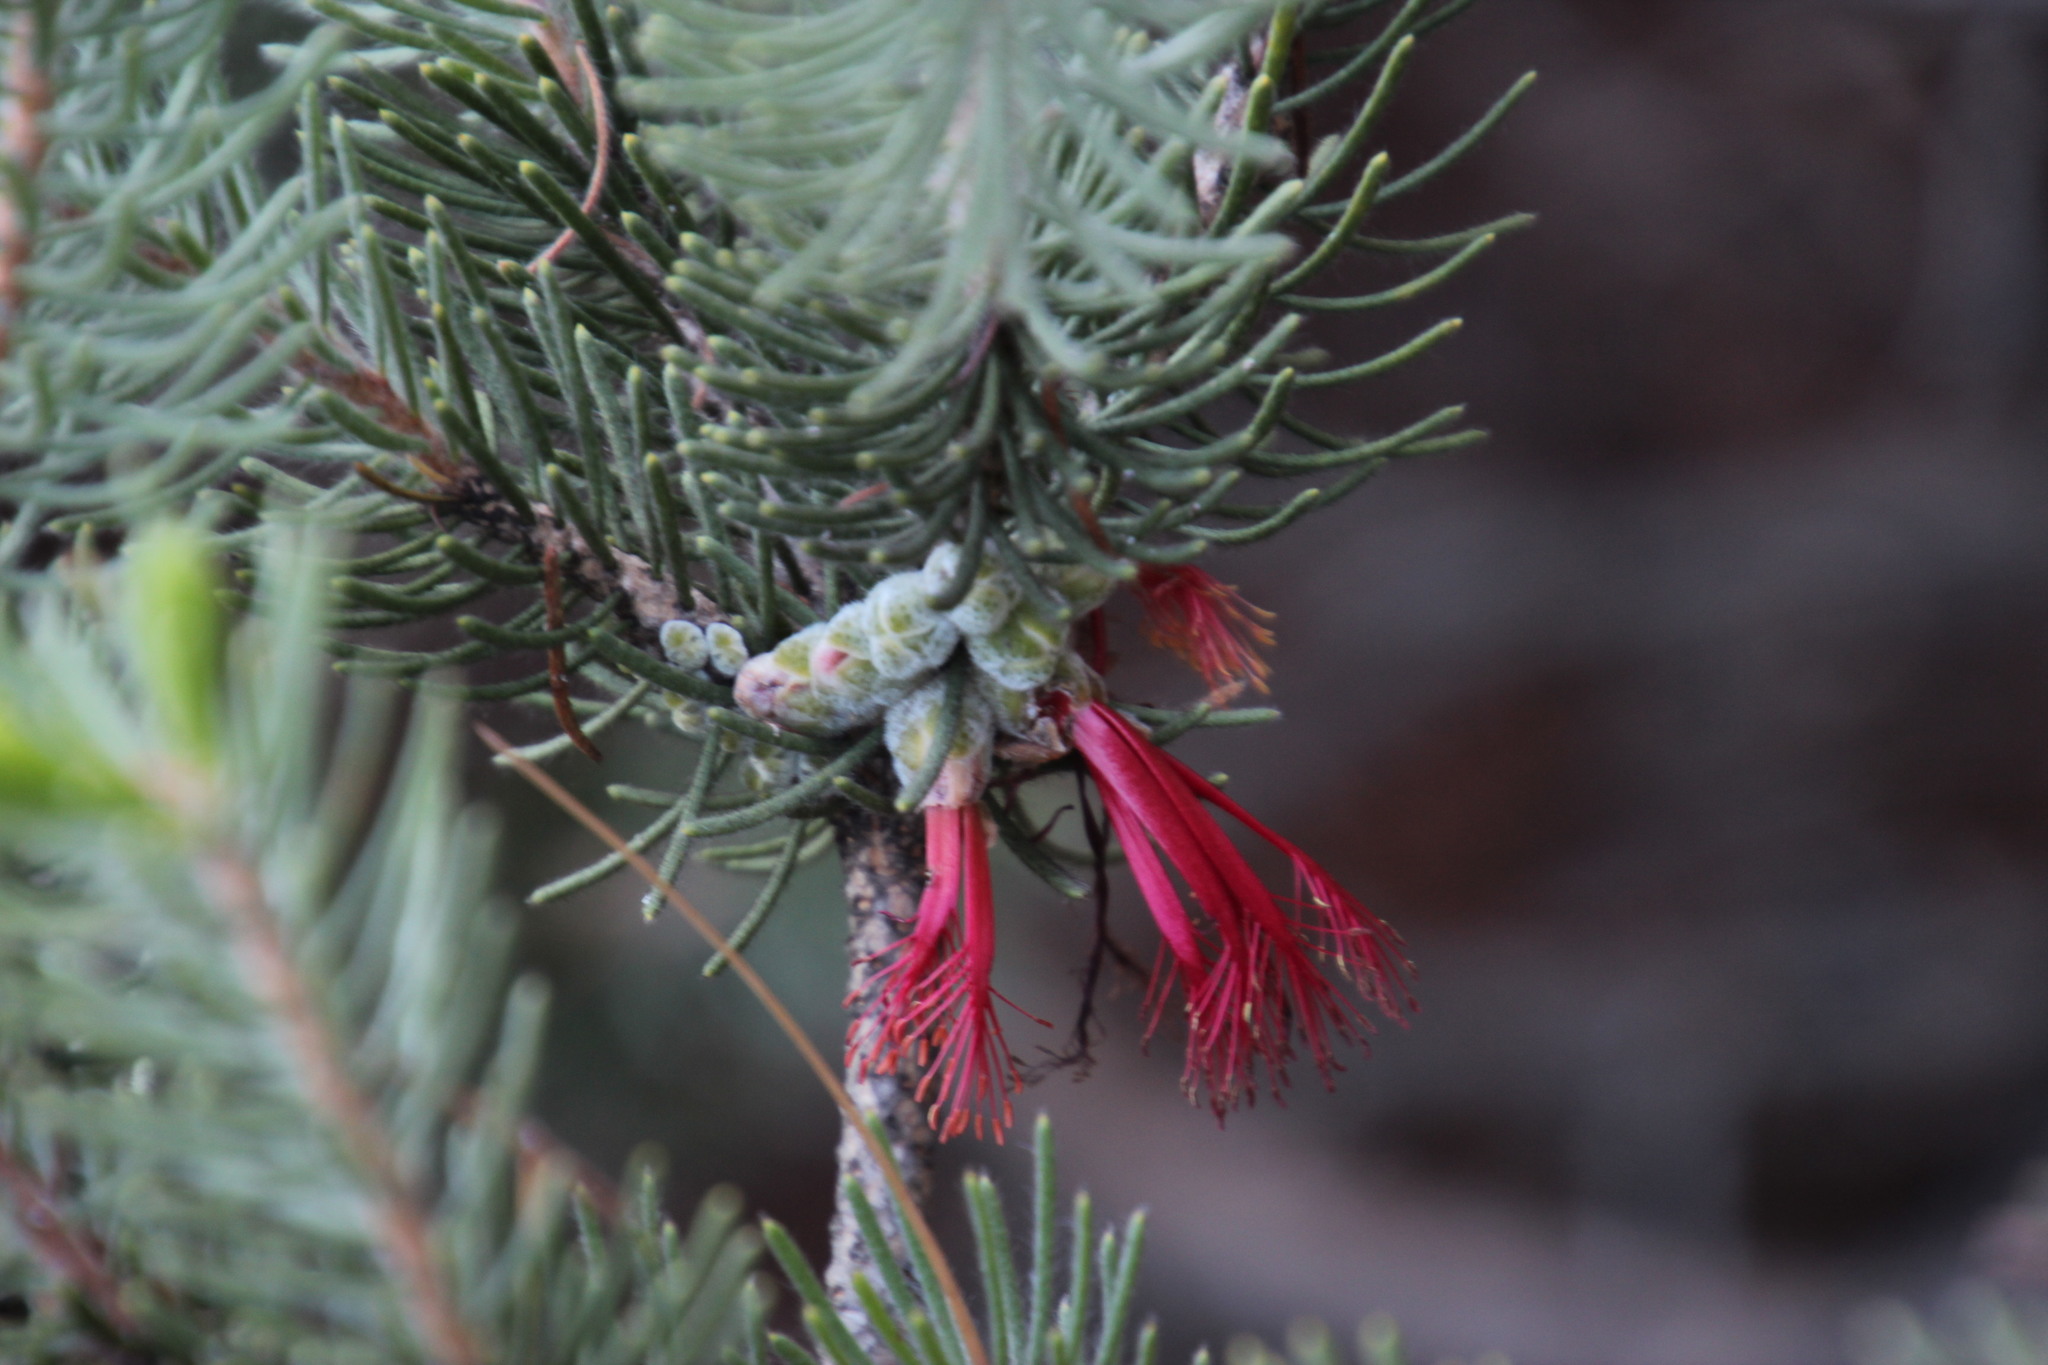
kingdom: Plantae
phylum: Tracheophyta
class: Magnoliopsida
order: Myrtales
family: Myrtaceae
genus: Melaleuca
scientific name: Melaleuca quadrifida
